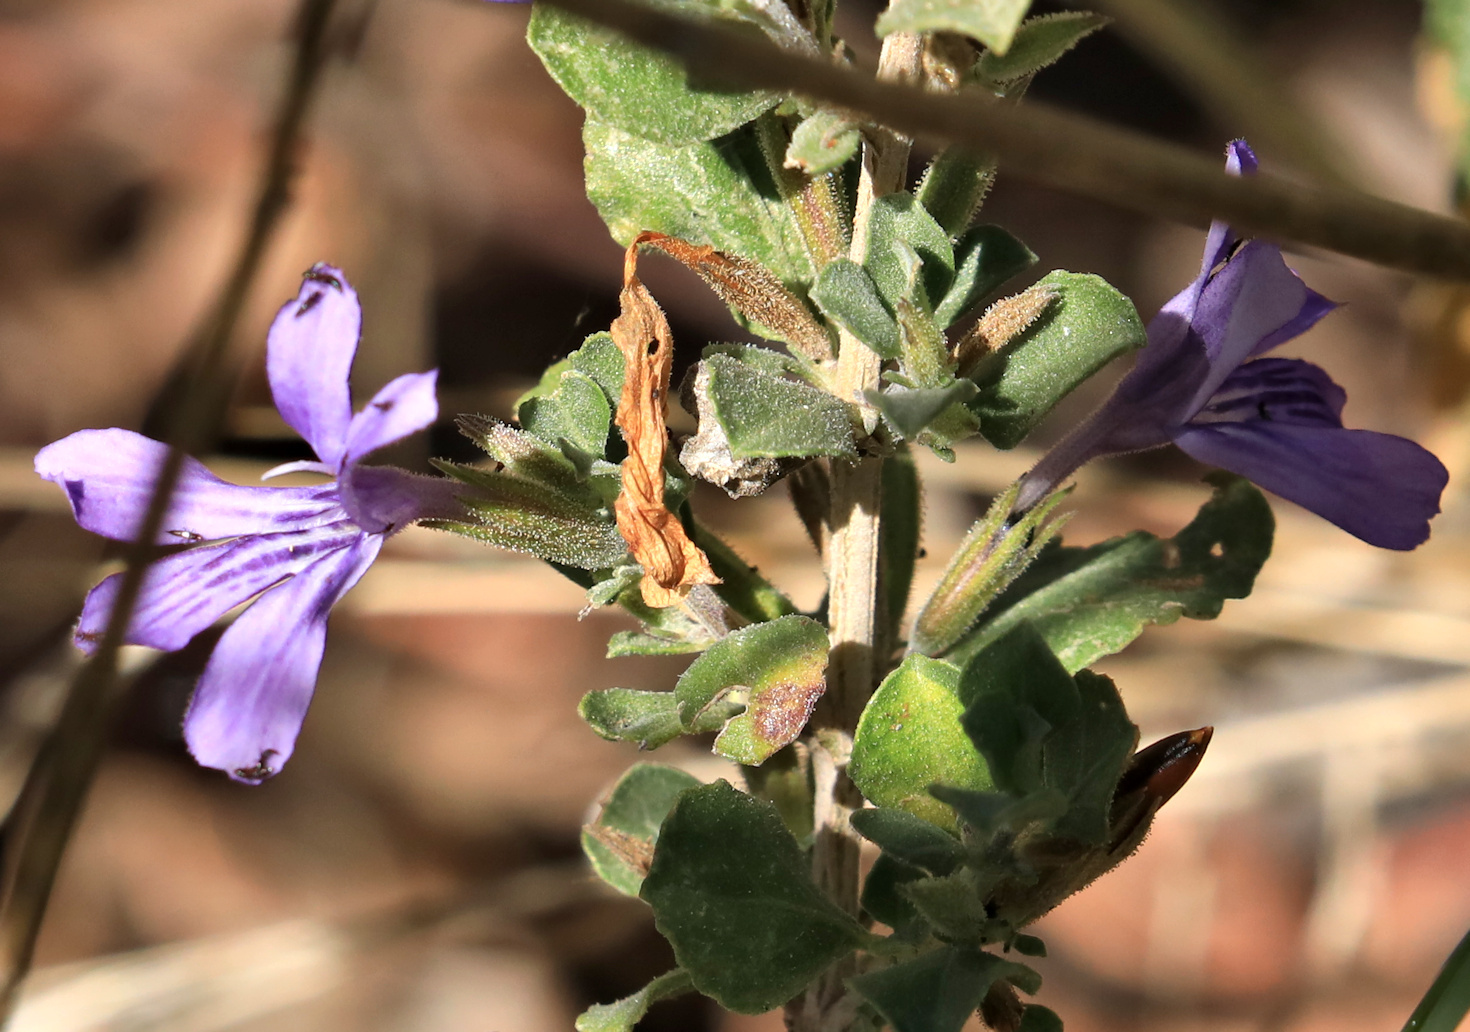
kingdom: Plantae
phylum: Tracheophyta
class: Magnoliopsida
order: Lamiales
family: Acanthaceae
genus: Dyschoriste
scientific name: Dyschoriste hildebrandtii
